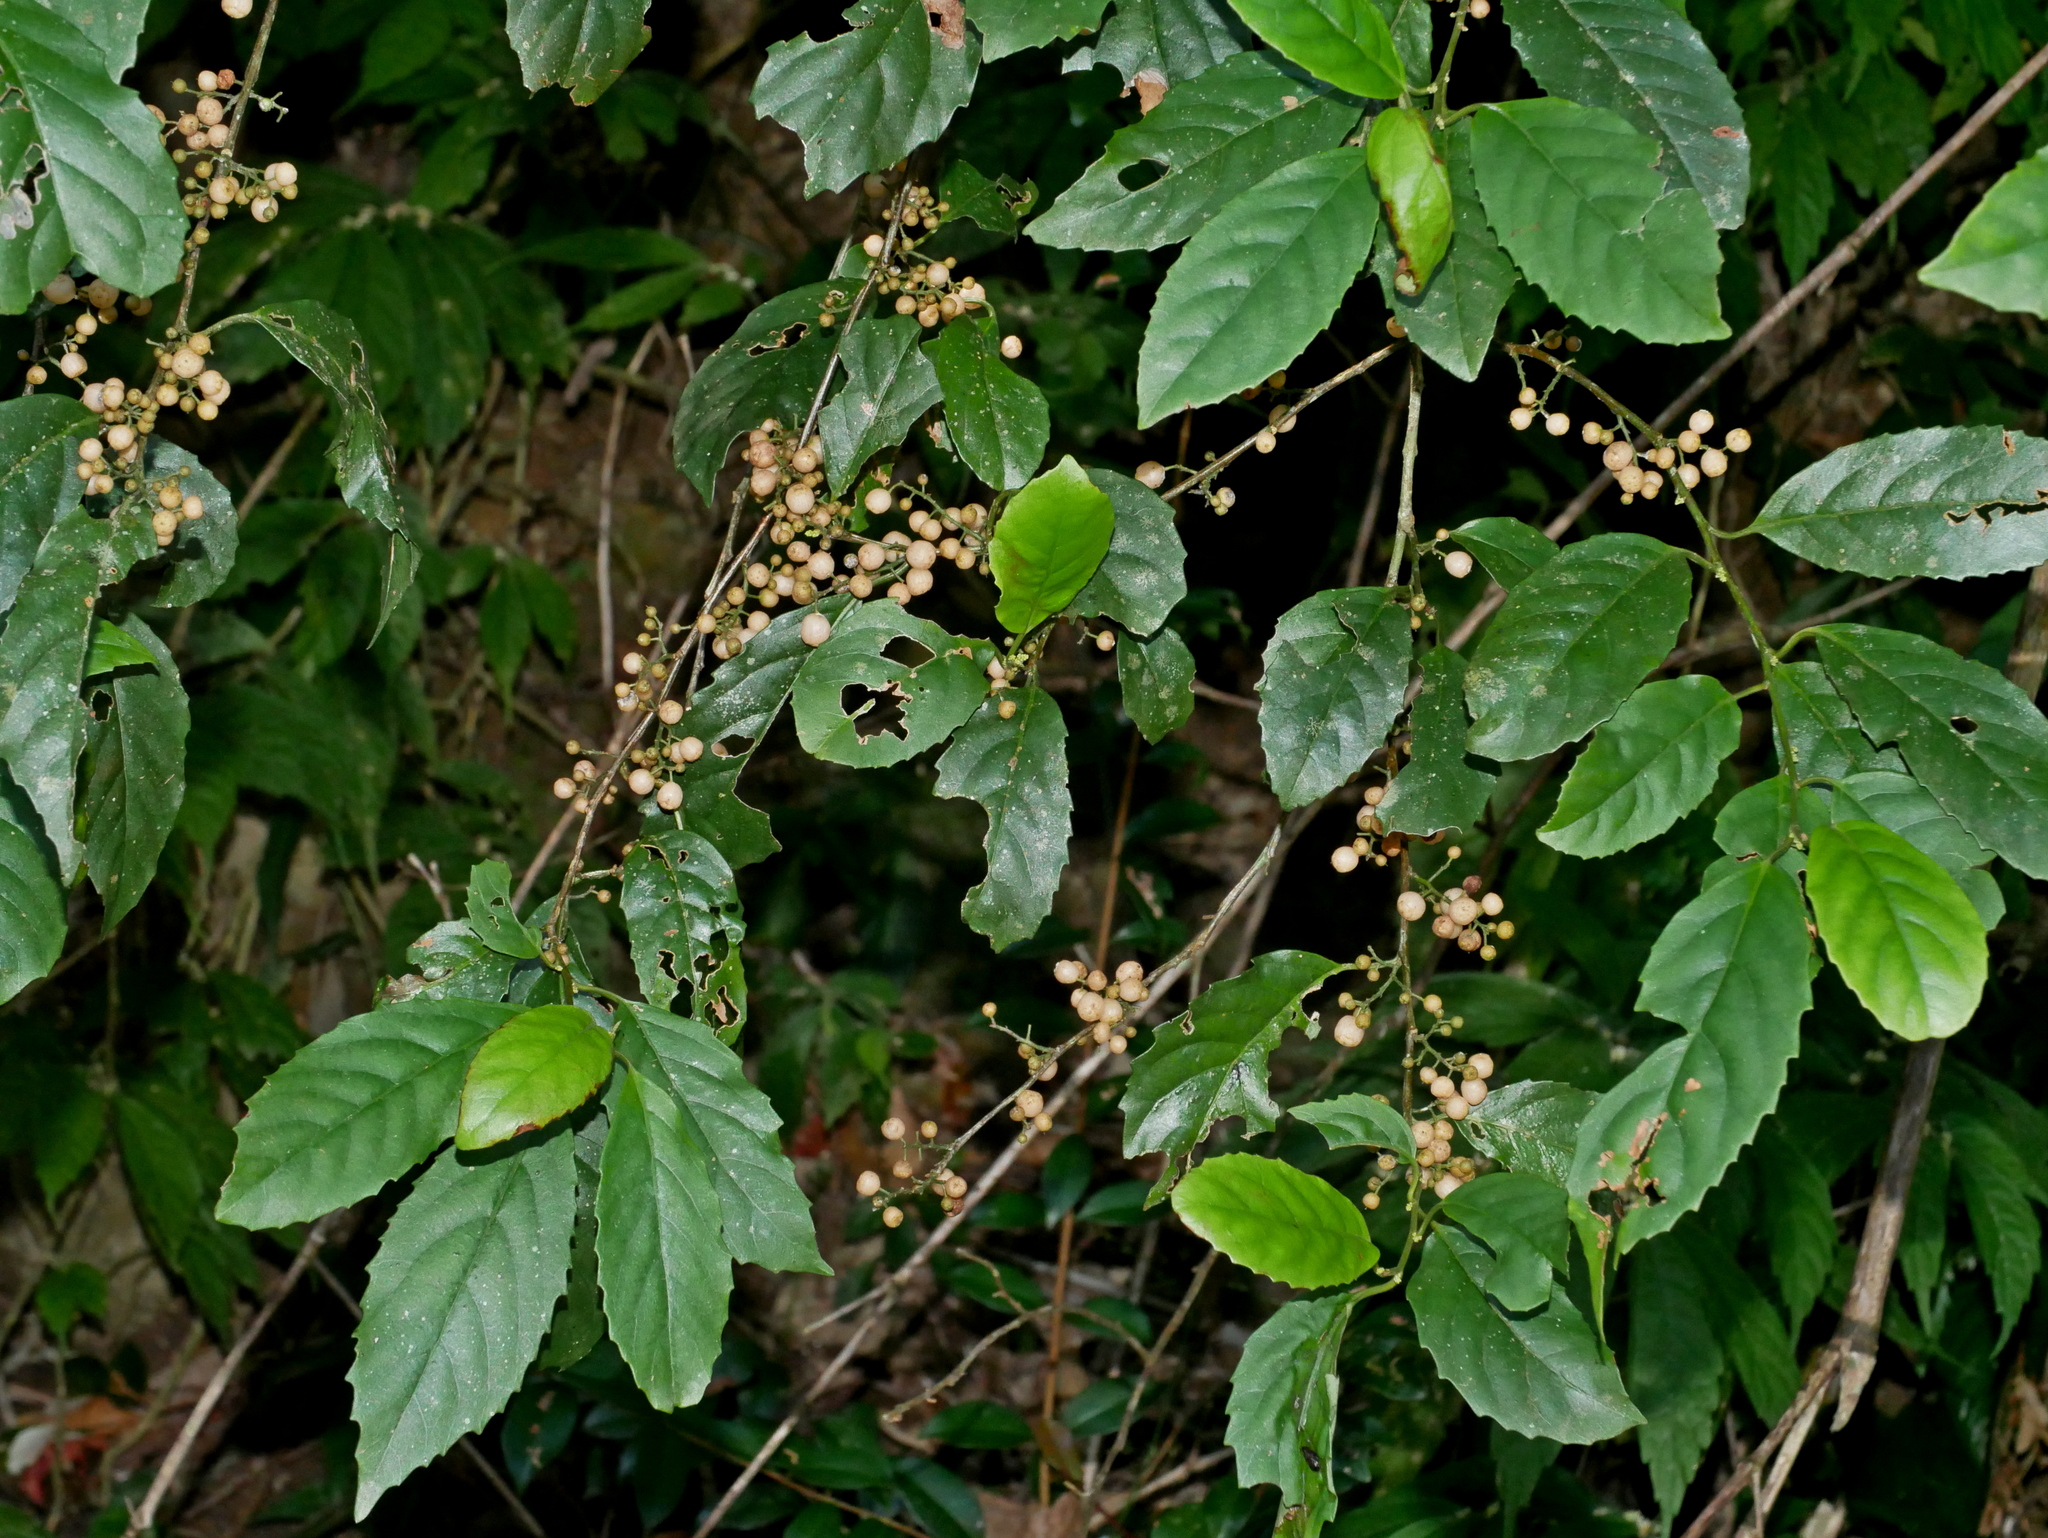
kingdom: Plantae
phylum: Tracheophyta
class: Magnoliopsida
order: Ericales
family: Primulaceae
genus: Maesa
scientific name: Maesa perlaria
